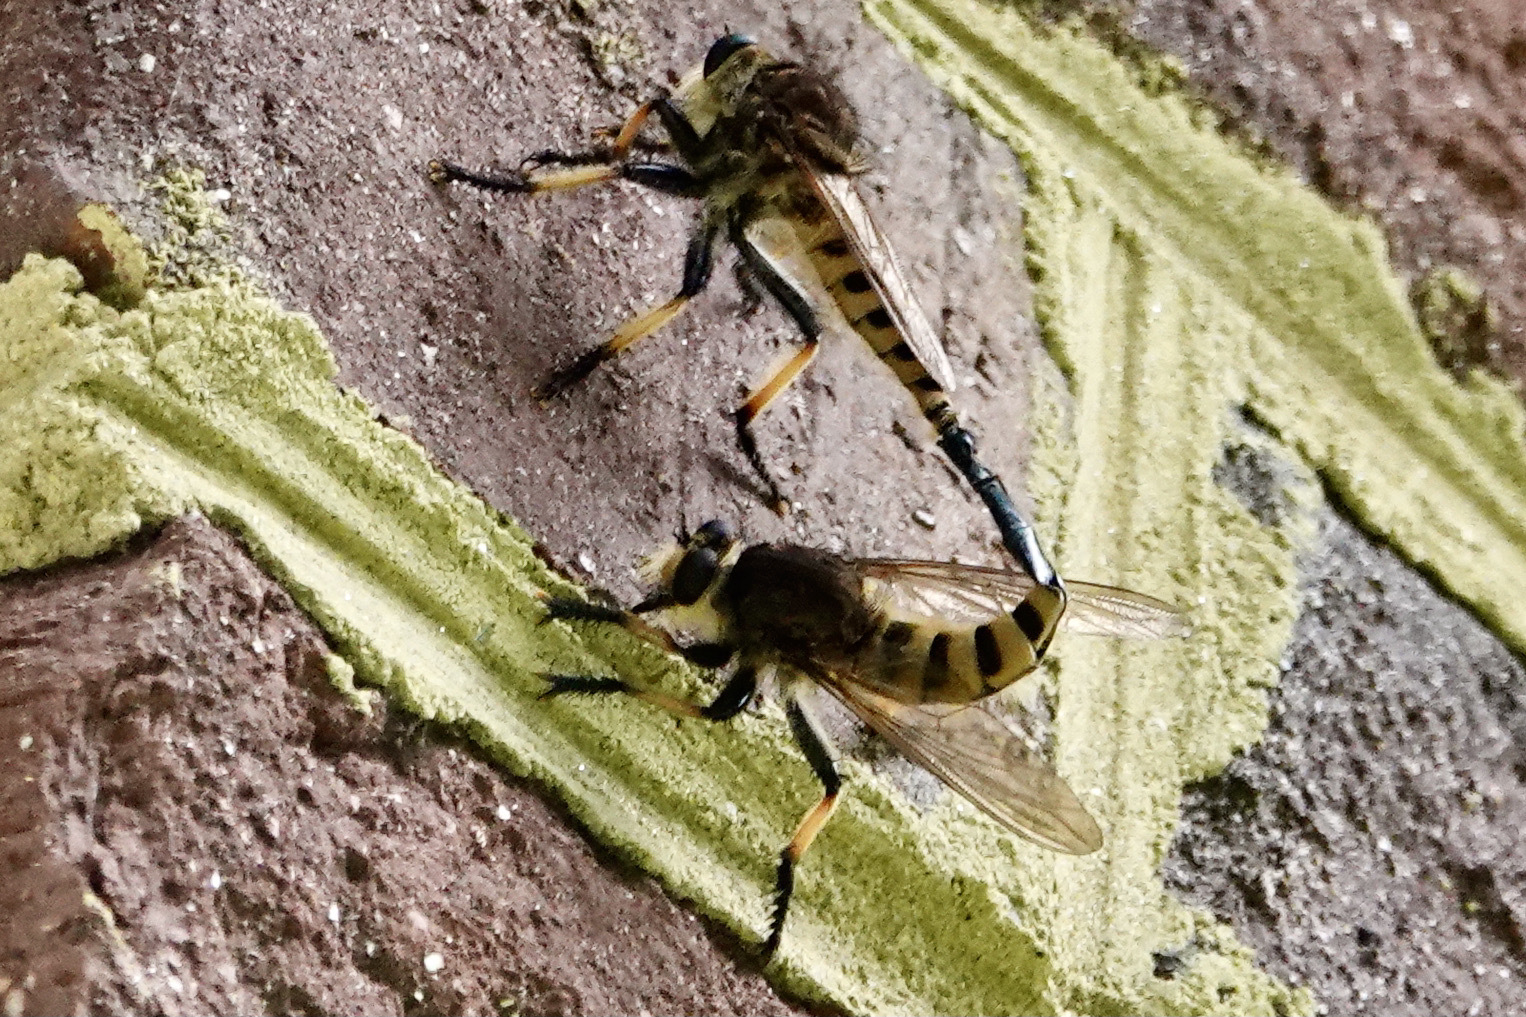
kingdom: Animalia
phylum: Arthropoda
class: Insecta
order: Diptera
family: Asilidae
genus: Promachus
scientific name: Promachus rufipes
